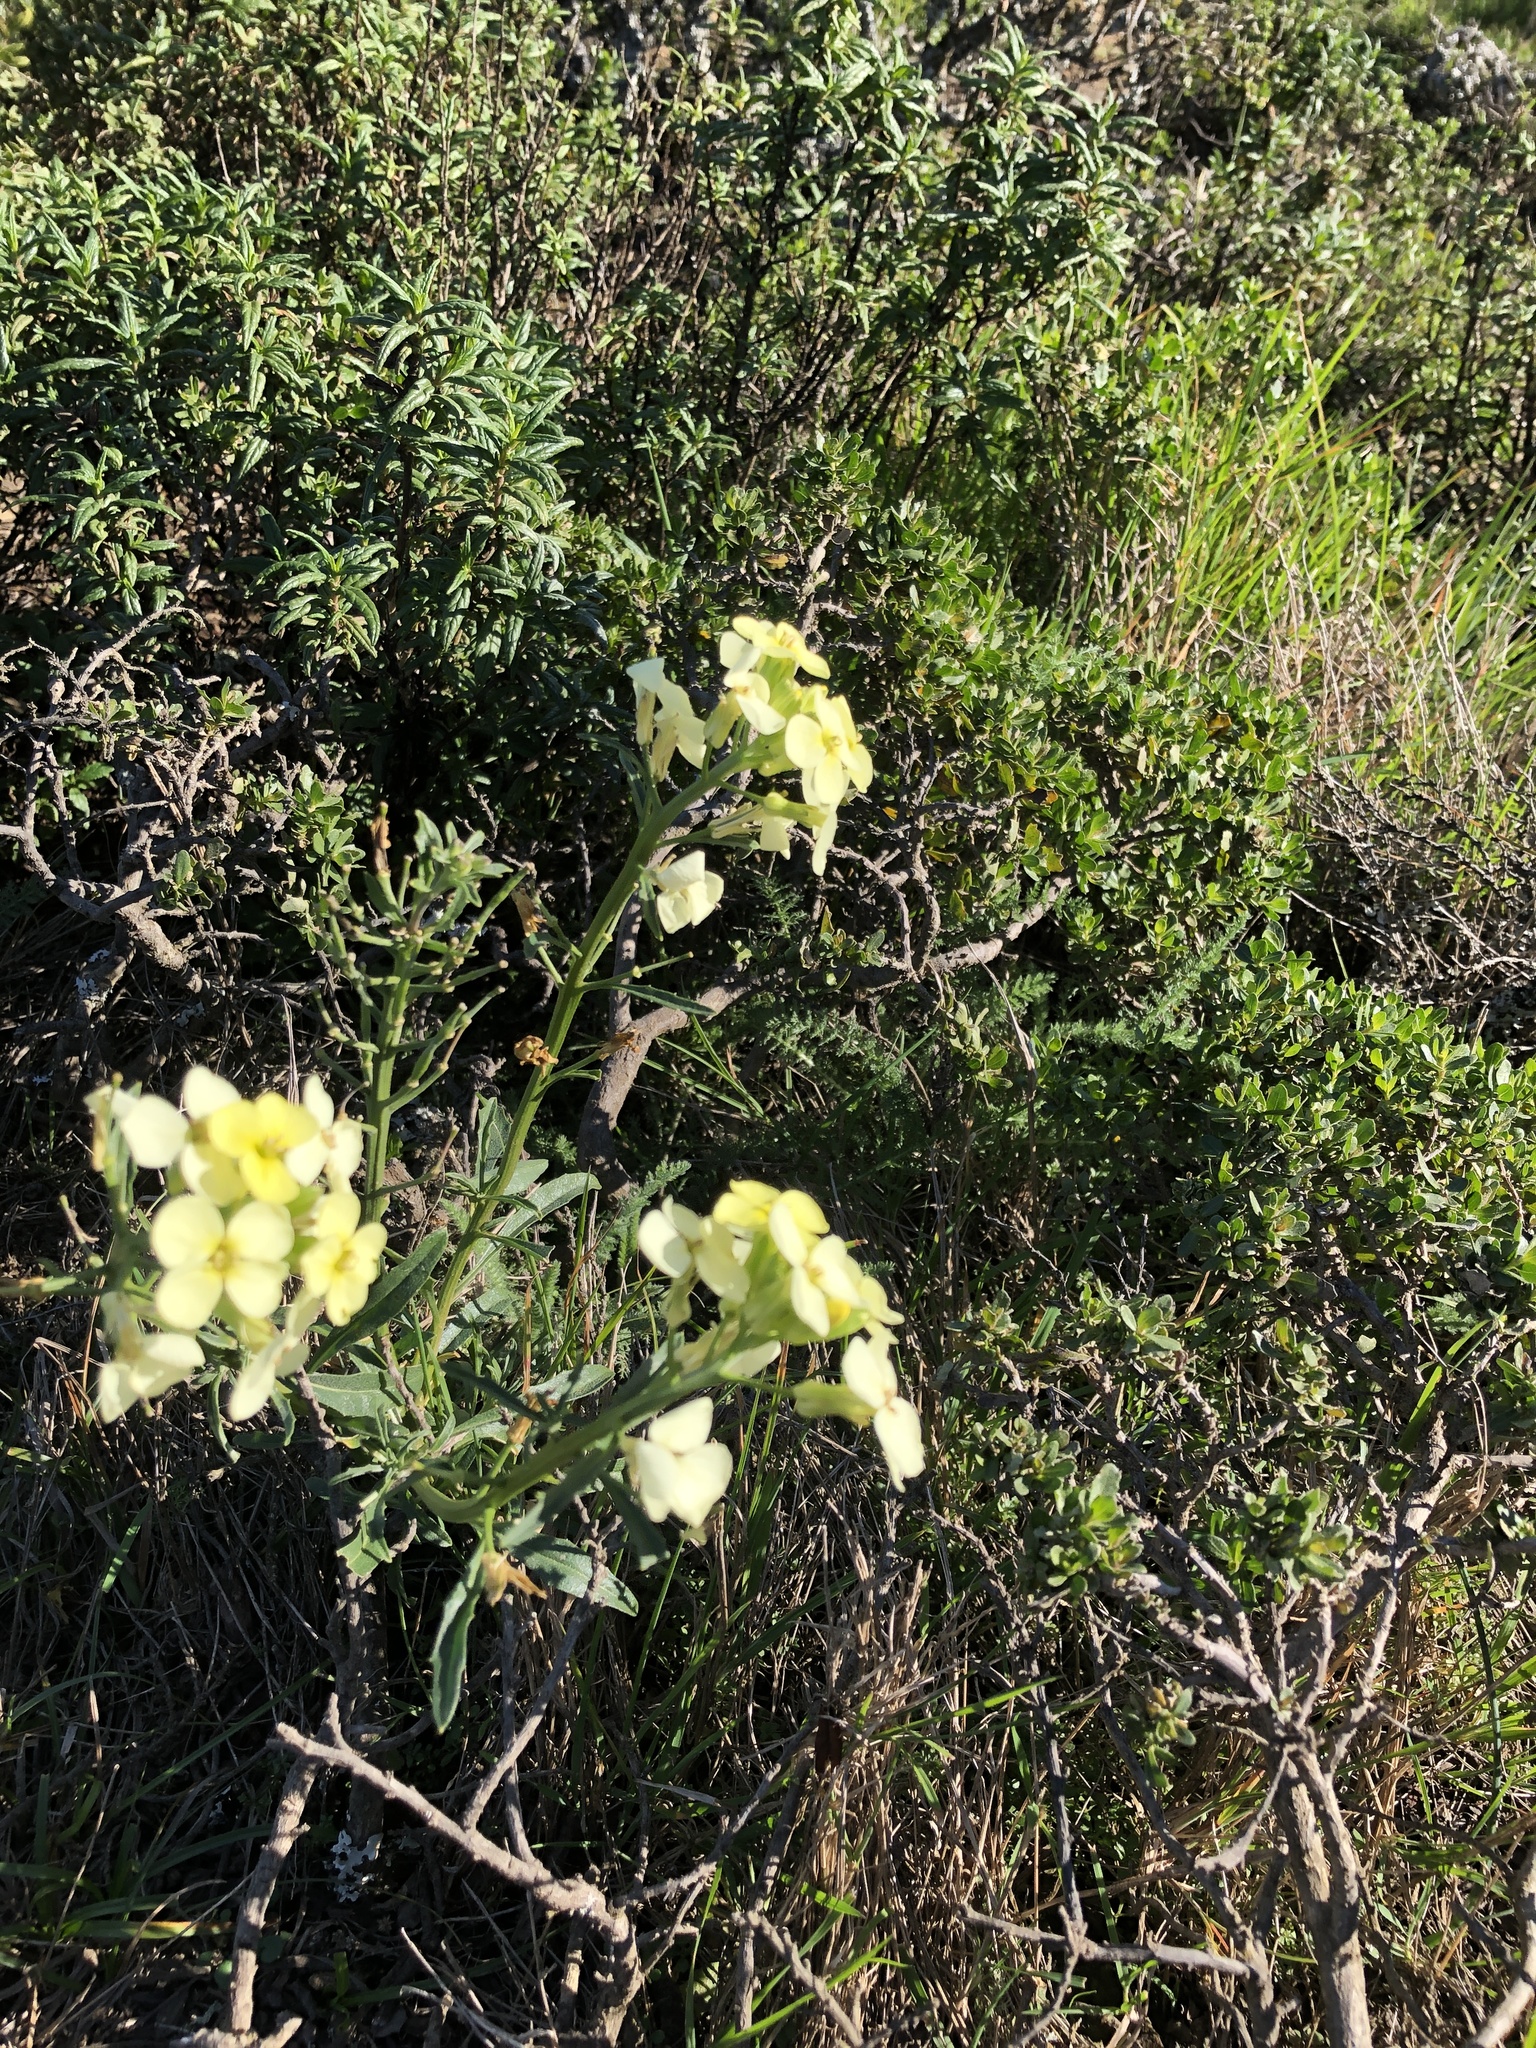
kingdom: Plantae
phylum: Tracheophyta
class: Magnoliopsida
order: Brassicales
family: Brassicaceae
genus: Erysimum
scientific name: Erysimum franciscanum
